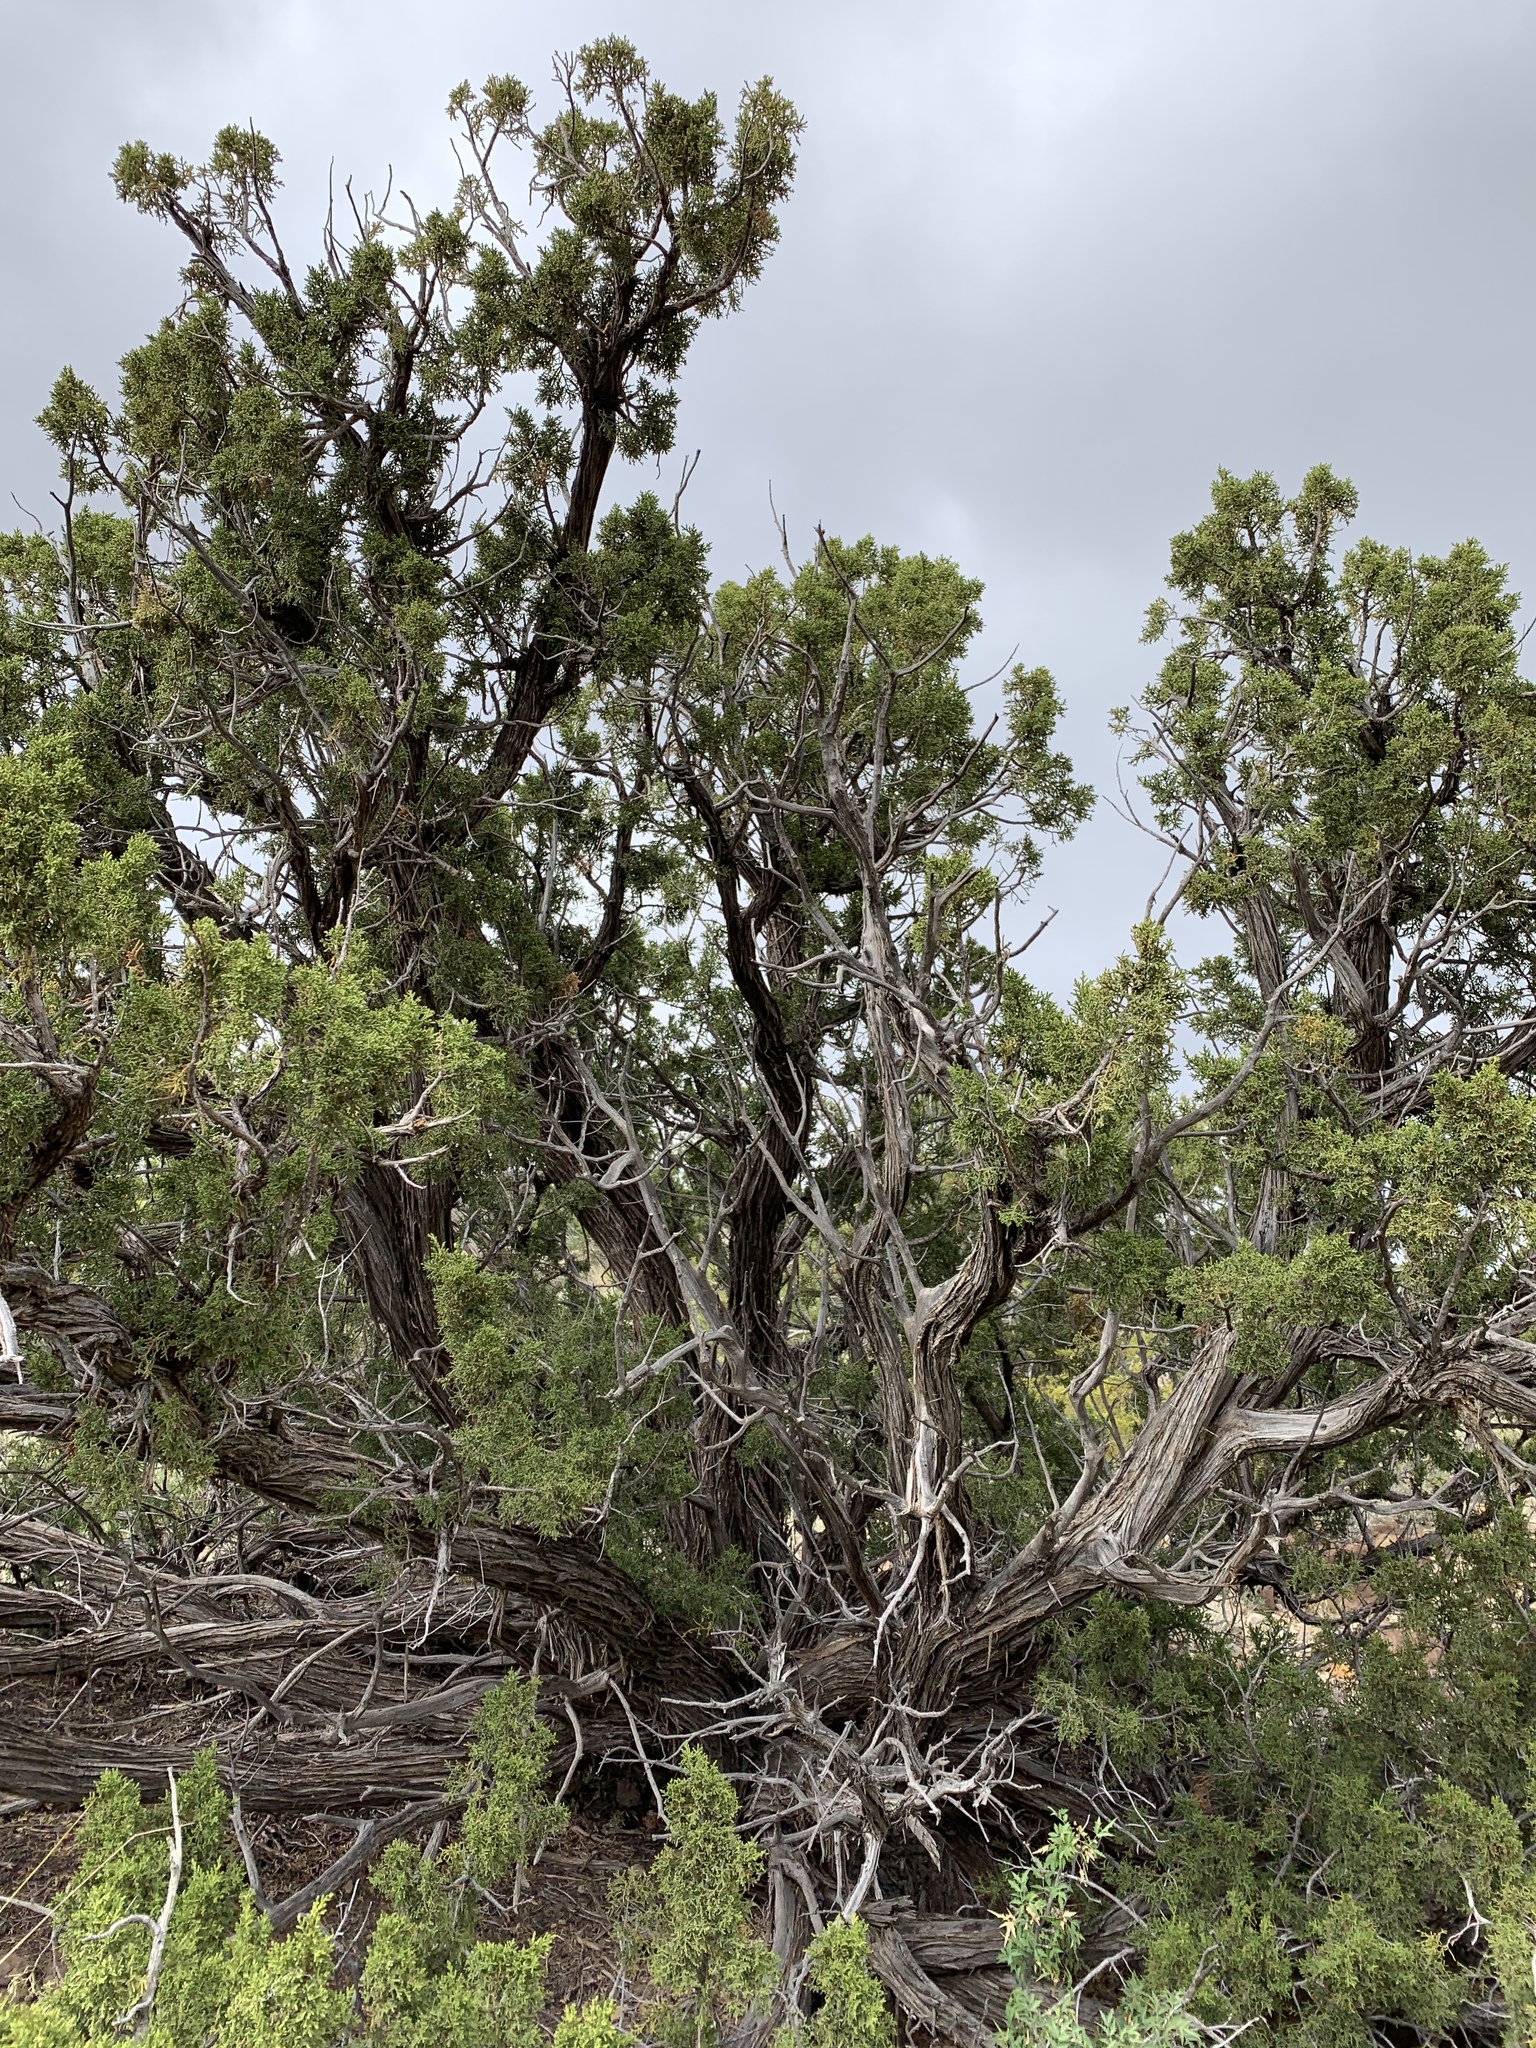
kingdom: Plantae
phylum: Tracheophyta
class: Pinopsida
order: Pinales
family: Cupressaceae
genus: Juniperus
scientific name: Juniperus monosperma
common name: One-seed juniper
